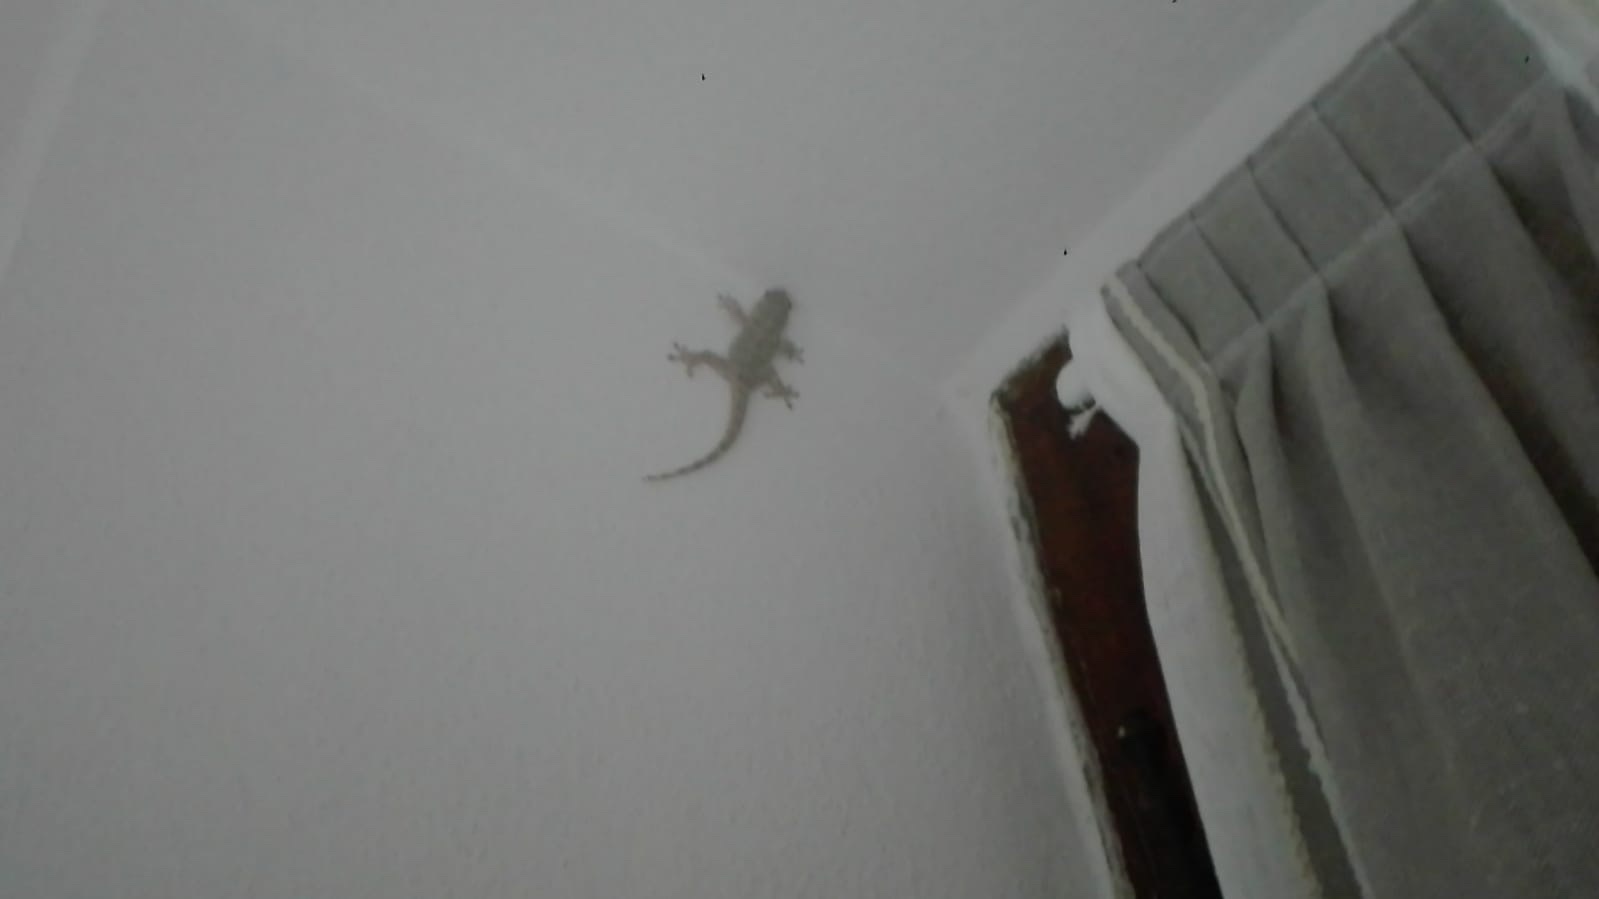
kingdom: Animalia
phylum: Chordata
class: Squamata
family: Phyllodactylidae
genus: Tarentola
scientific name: Tarentola mauritanica
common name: Moorish gecko
